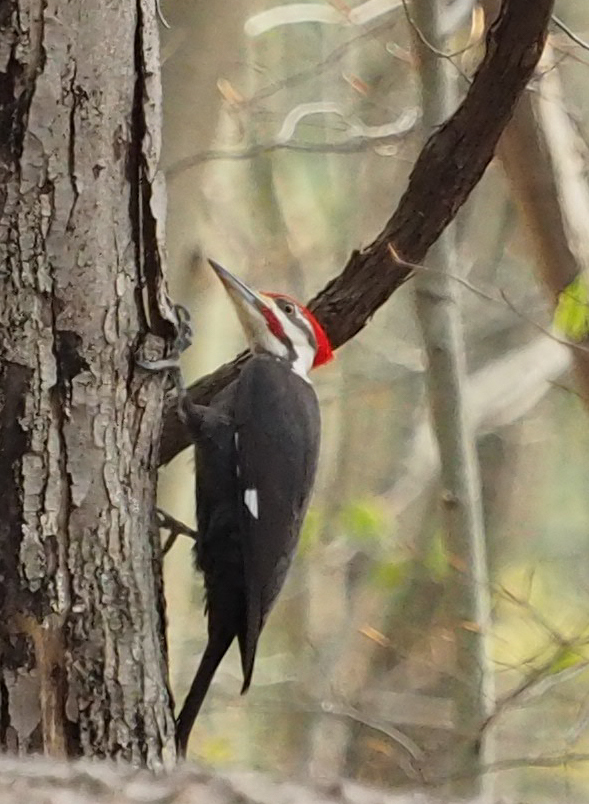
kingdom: Animalia
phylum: Chordata
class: Aves
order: Piciformes
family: Picidae
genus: Dryocopus
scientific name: Dryocopus pileatus
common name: Pileated woodpecker
